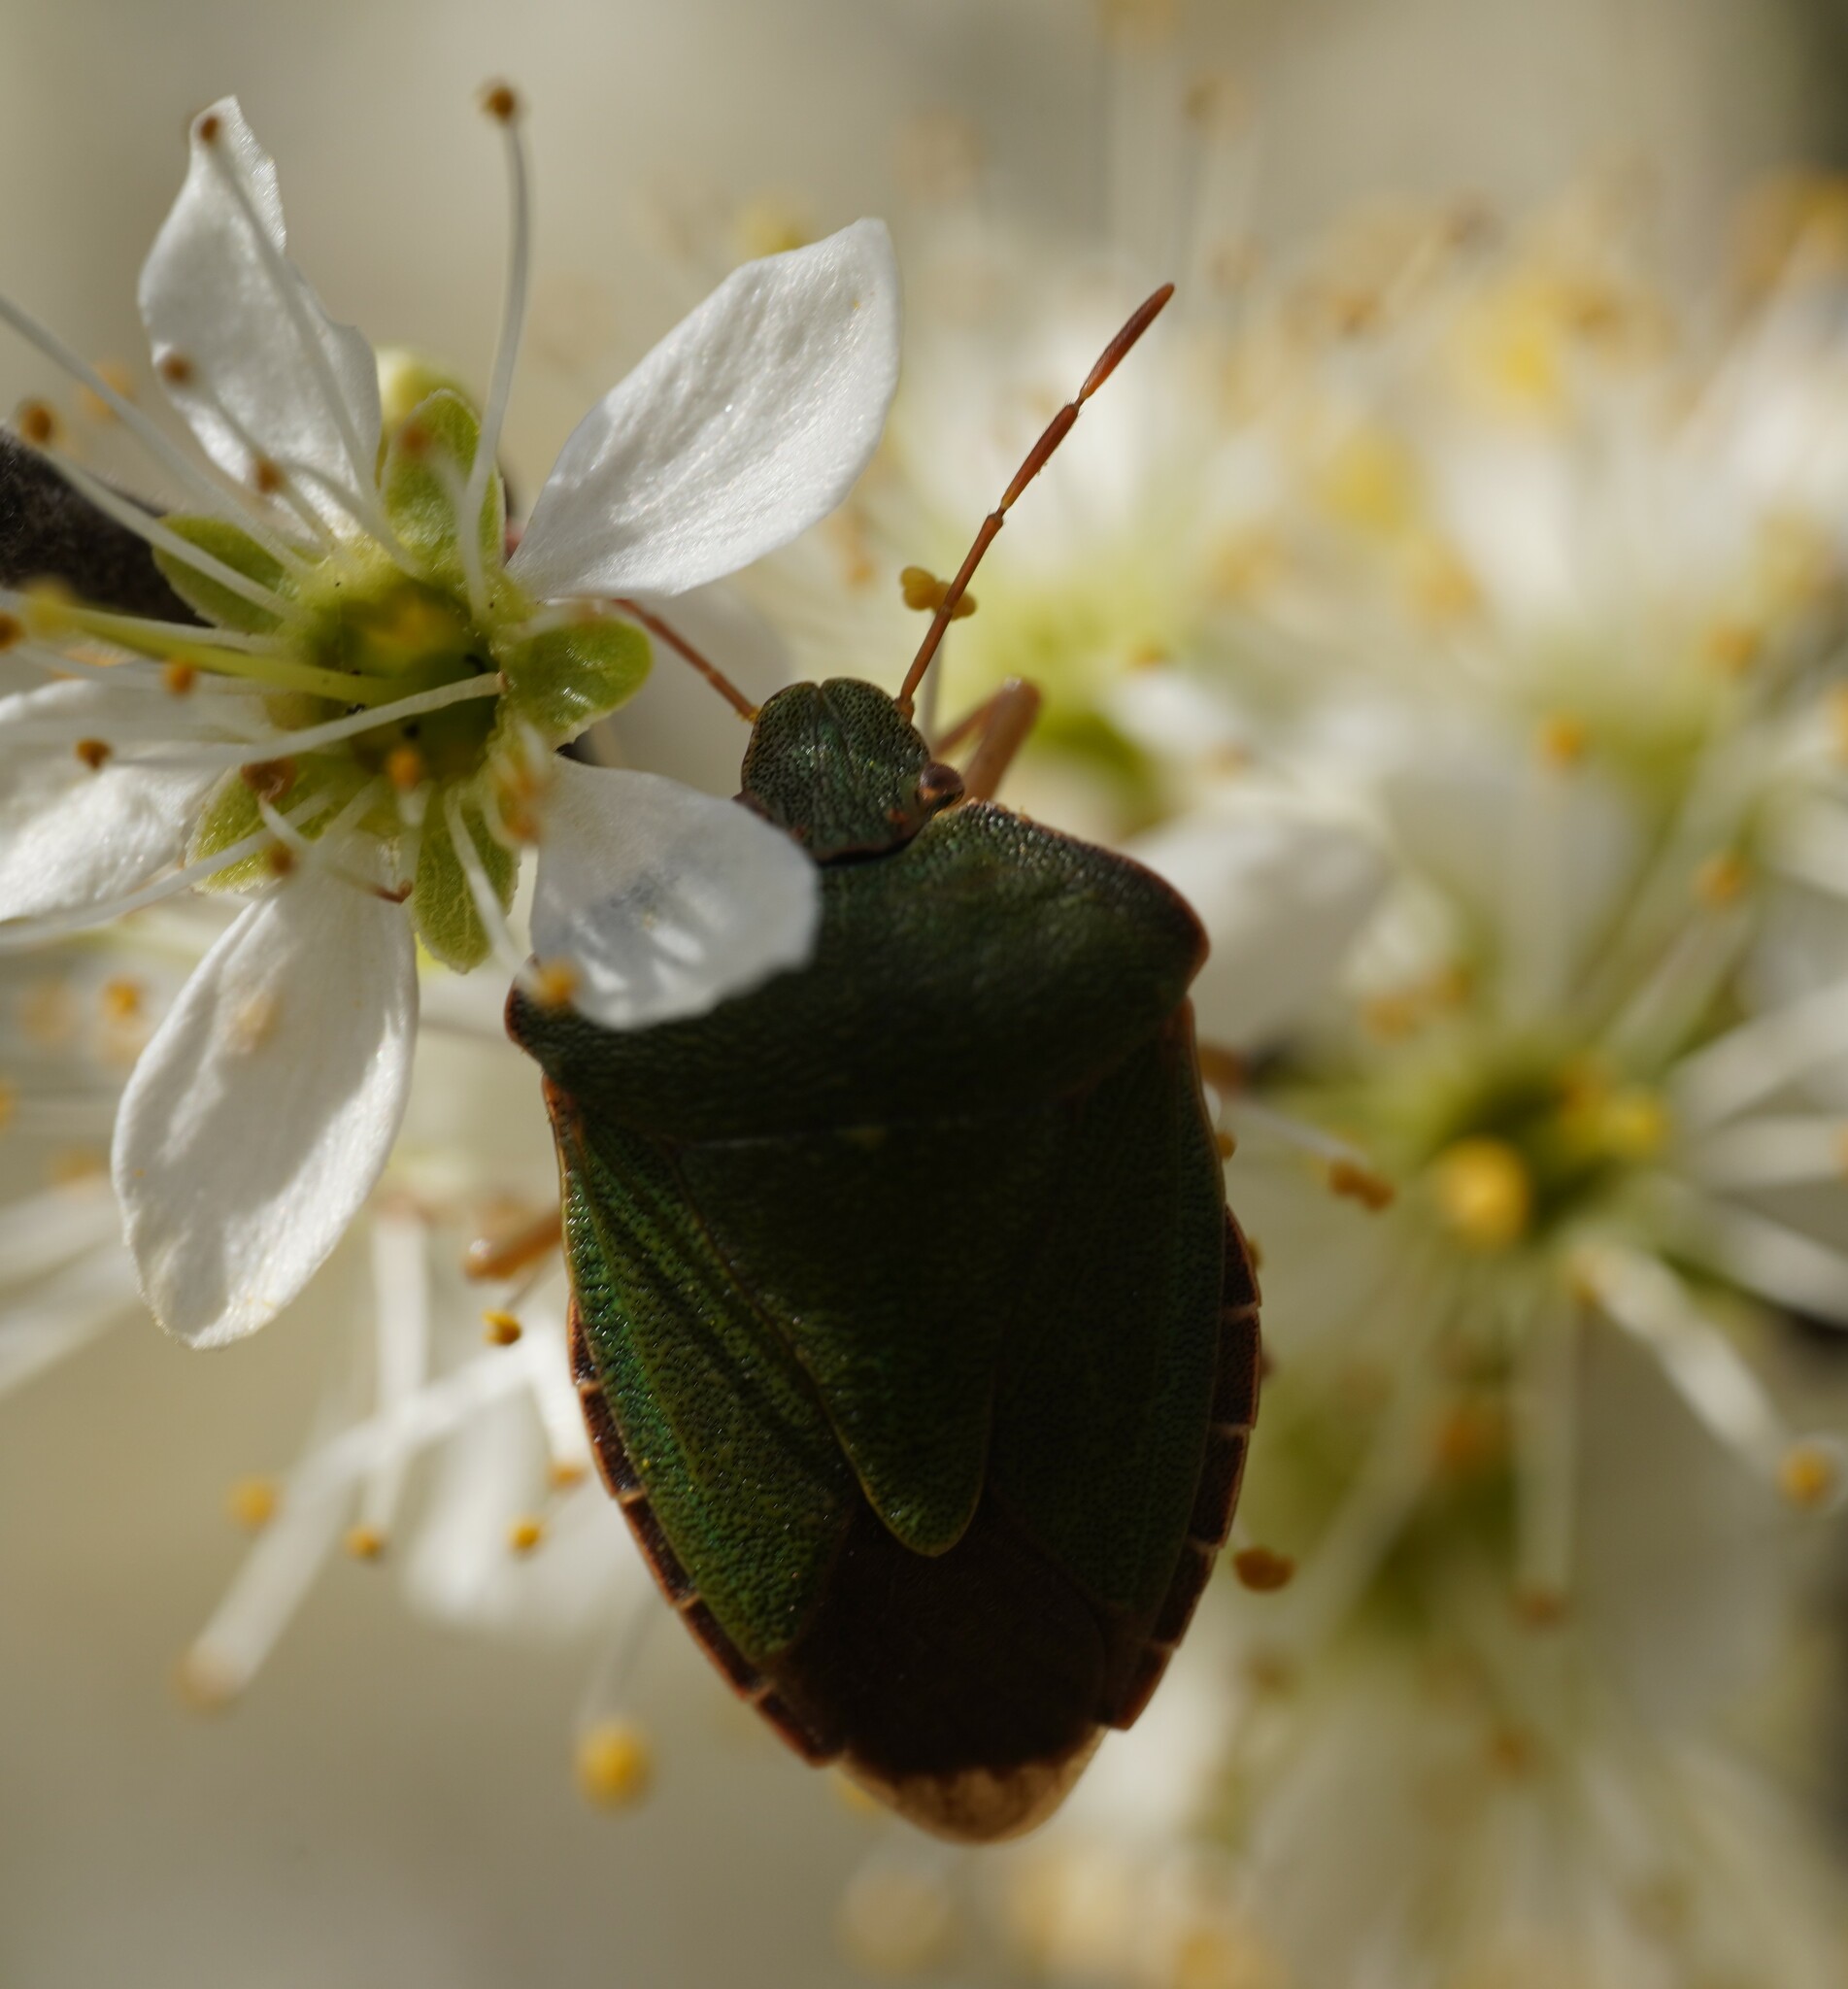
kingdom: Animalia
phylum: Arthropoda
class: Insecta
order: Hemiptera
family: Pentatomidae
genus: Palomena
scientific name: Palomena prasina
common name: Green shieldbug
